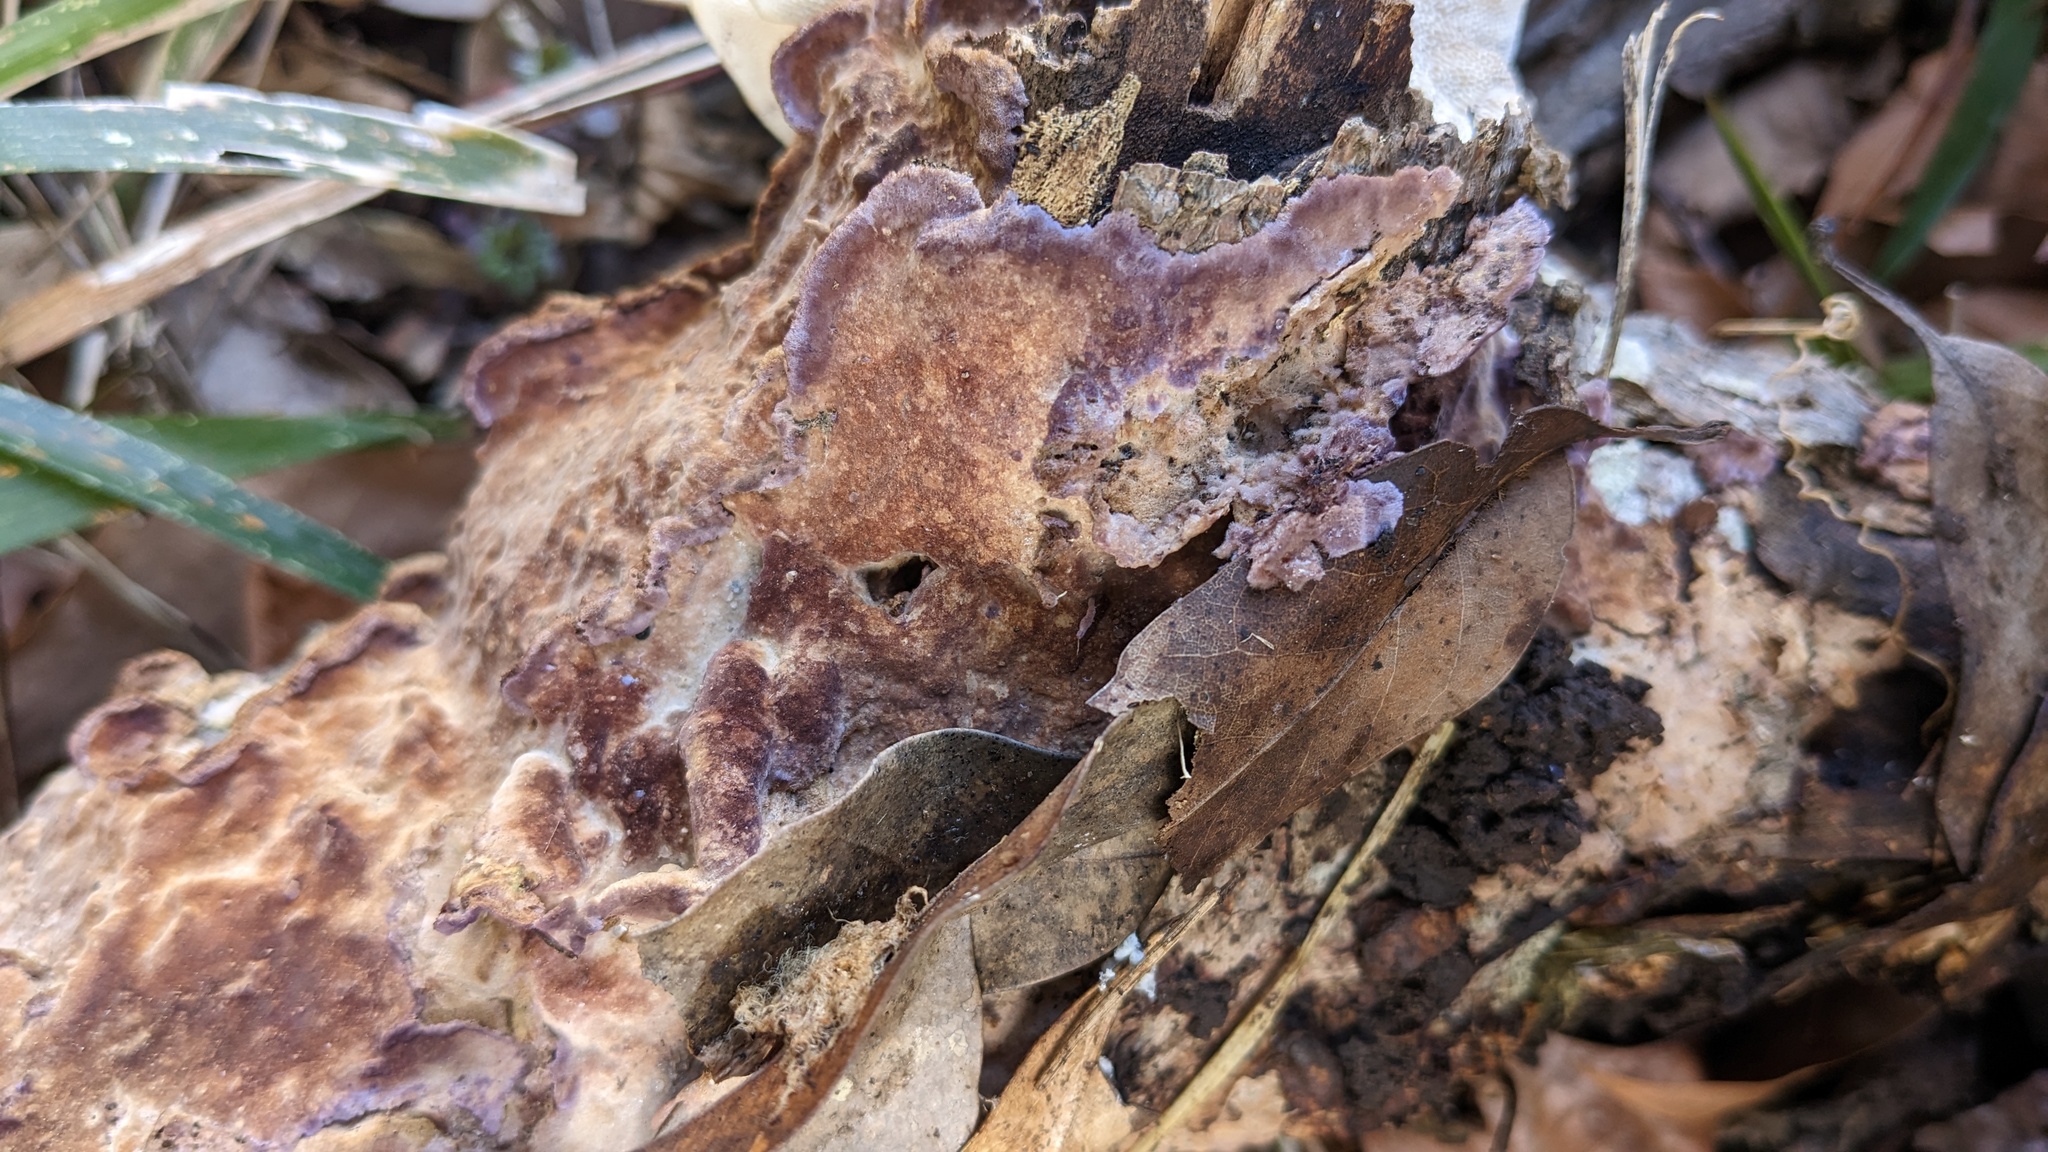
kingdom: Fungi
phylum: Basidiomycota
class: Agaricomycetes
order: Polyporales
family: Phanerochaetaceae
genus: Phlebiopsis
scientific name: Phlebiopsis crassa
